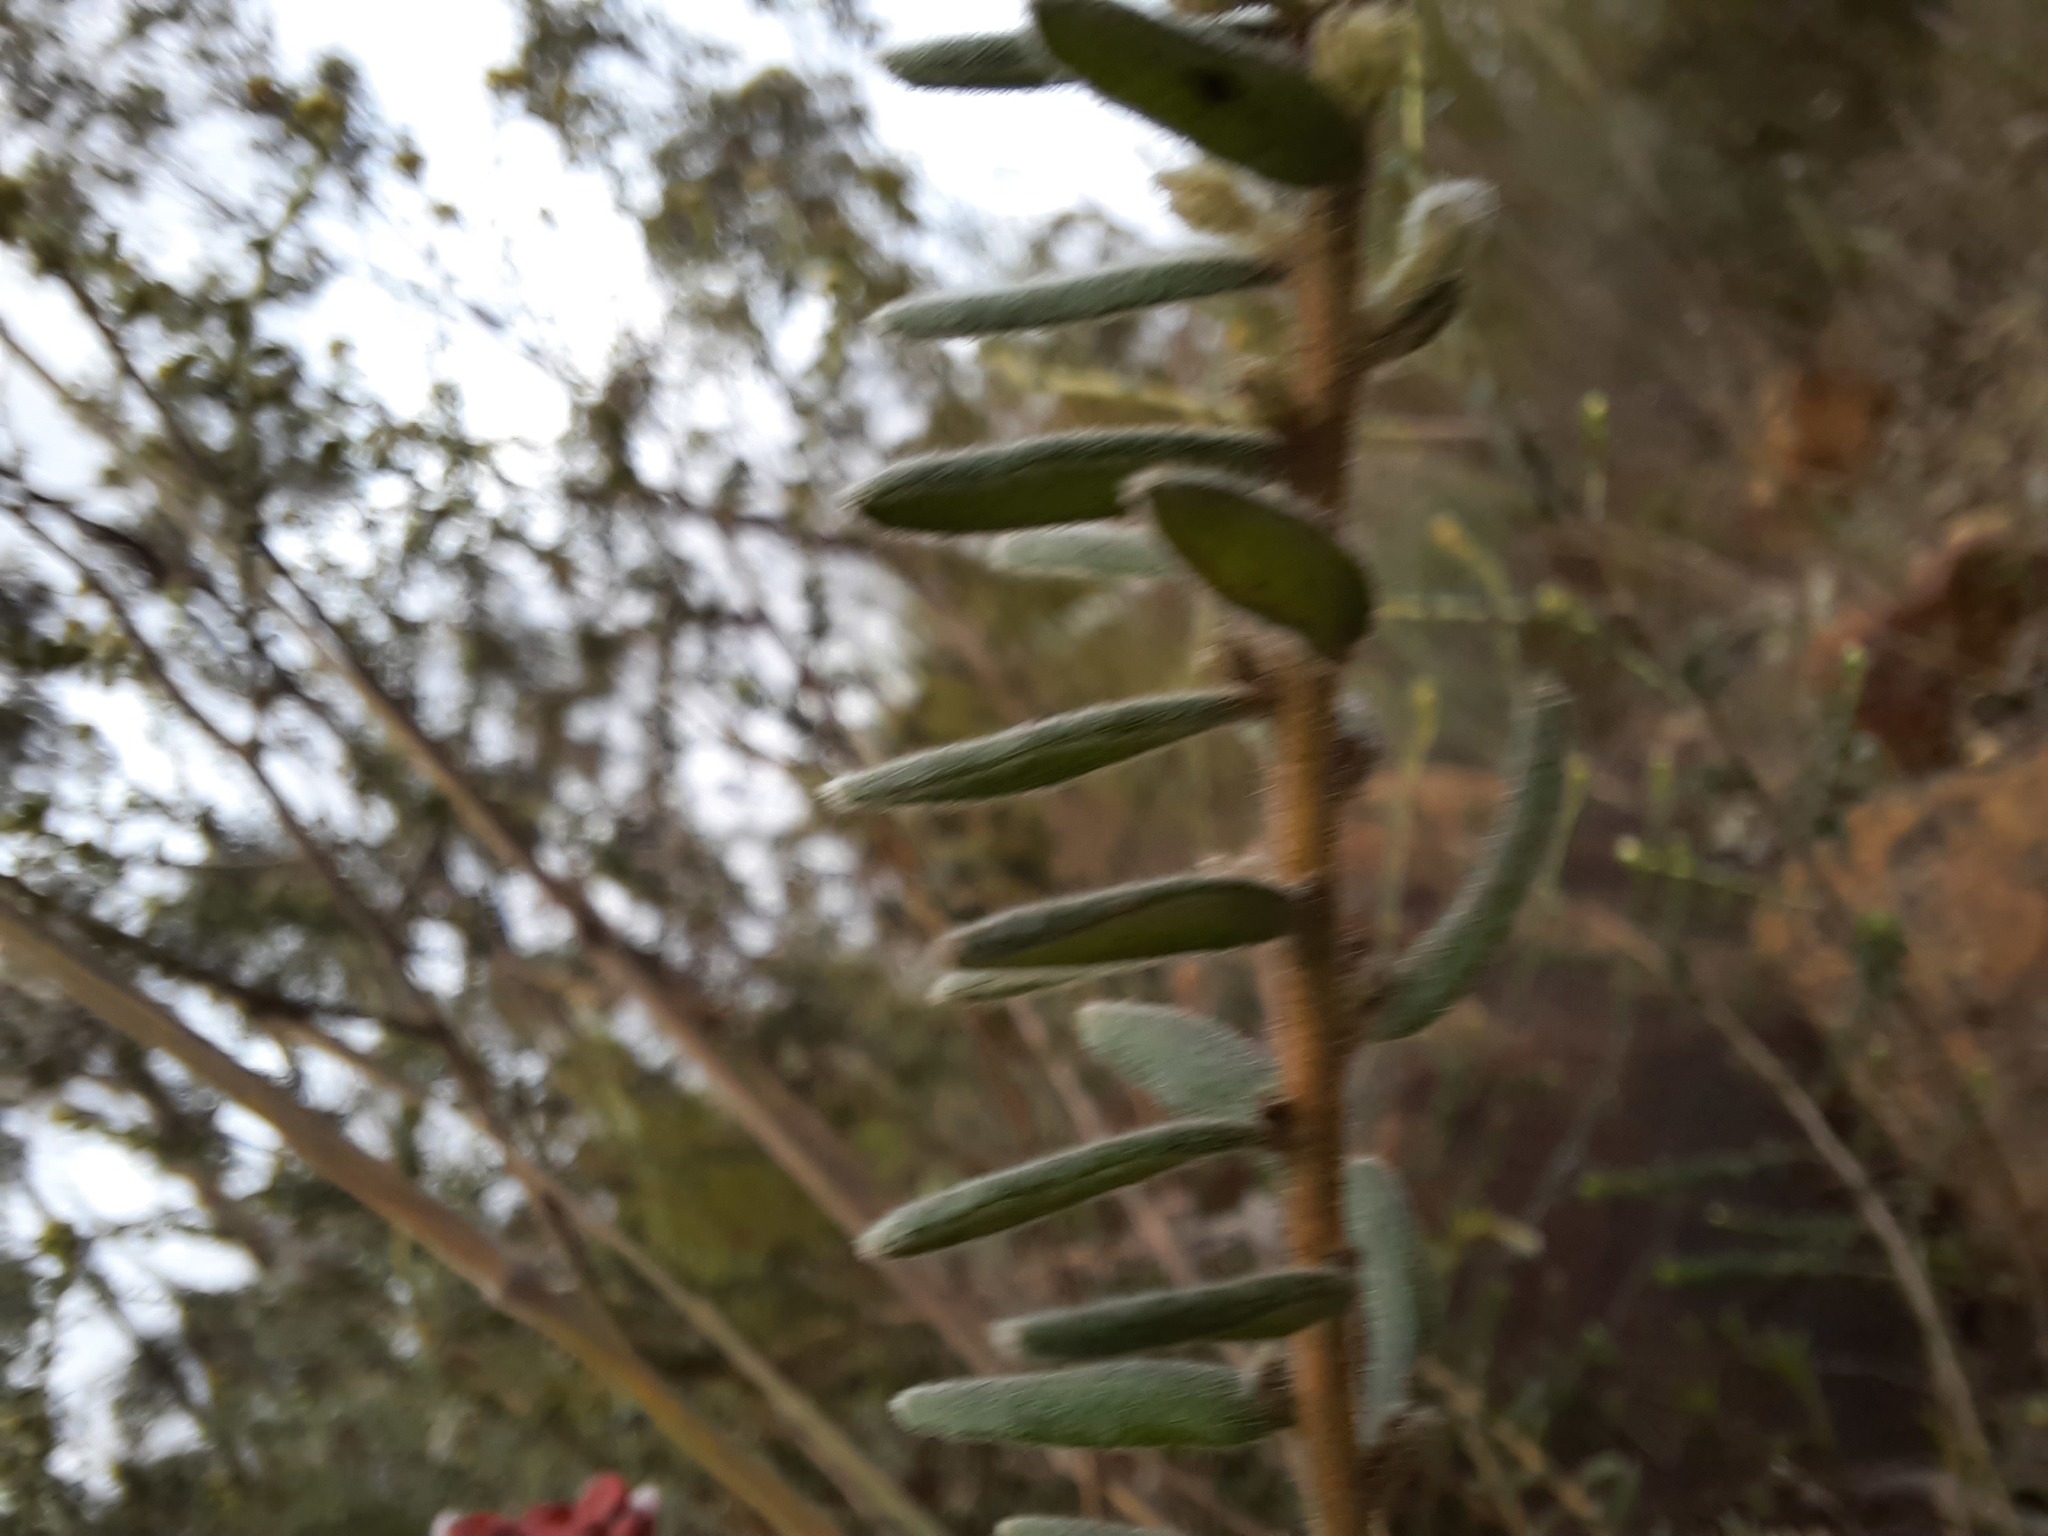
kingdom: Plantae
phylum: Tracheophyta
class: Magnoliopsida
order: Proteales
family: Proteaceae
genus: Grevillea
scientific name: Grevillea alpina
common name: Catclaws grevillea
